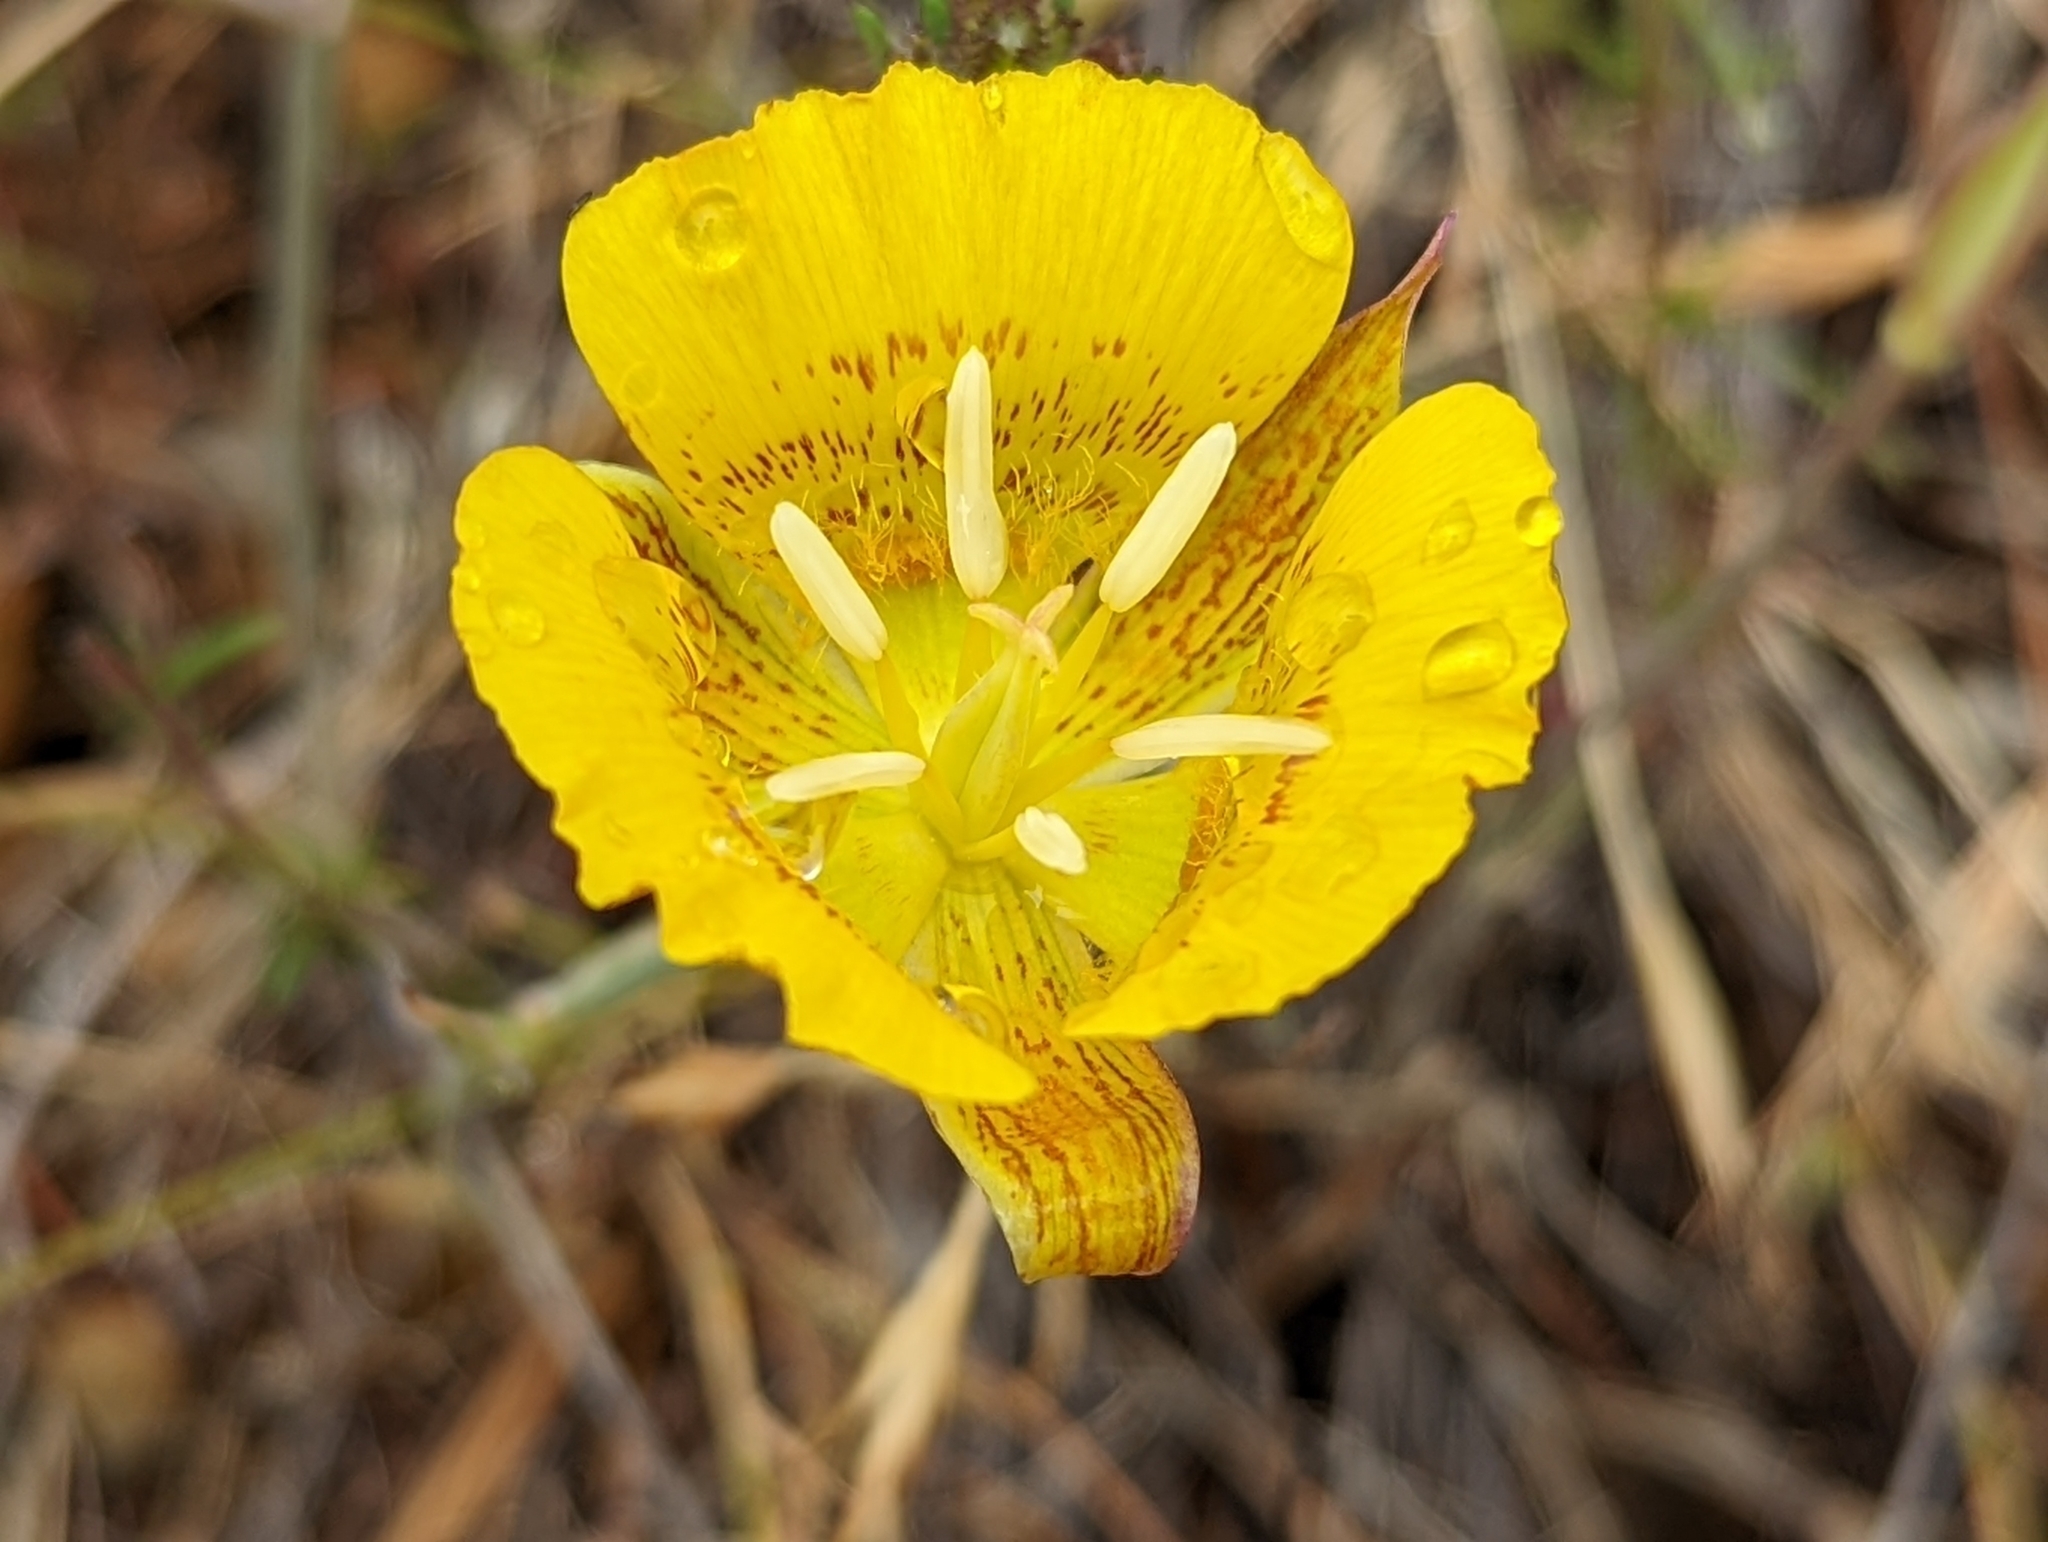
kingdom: Plantae
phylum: Tracheophyta
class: Liliopsida
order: Liliales
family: Liliaceae
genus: Calochortus
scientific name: Calochortus luteus
